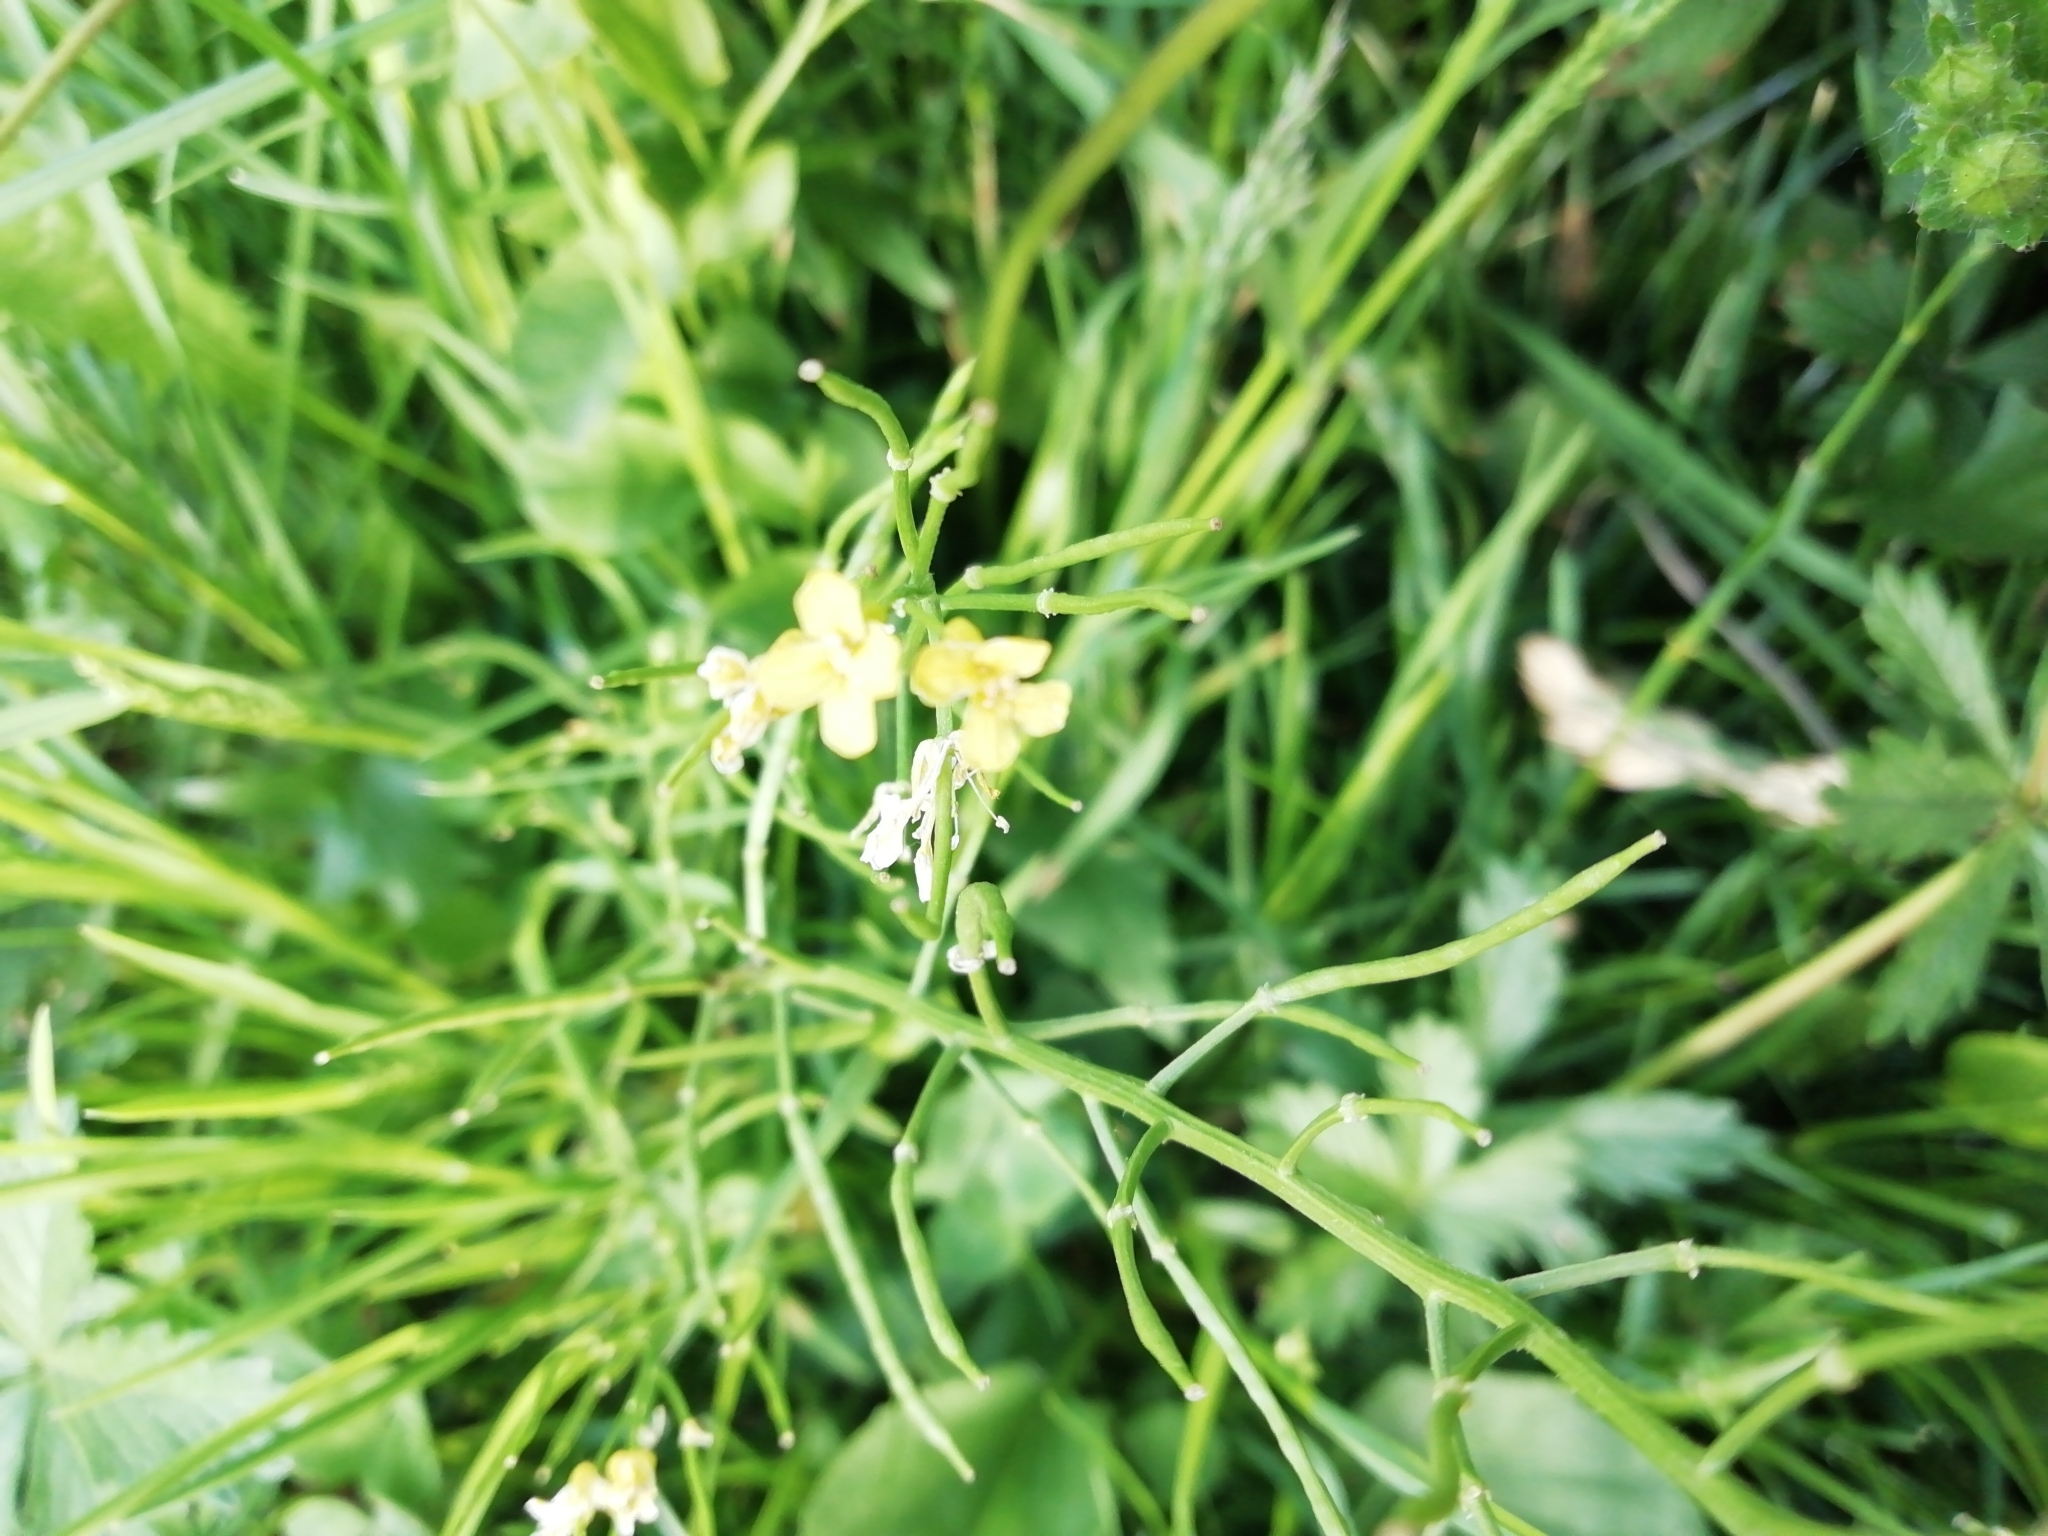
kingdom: Plantae
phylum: Tracheophyta
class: Magnoliopsida
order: Brassicales
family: Brassicaceae
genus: Barbarea
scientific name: Barbarea vulgaris
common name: Cressy-greens
